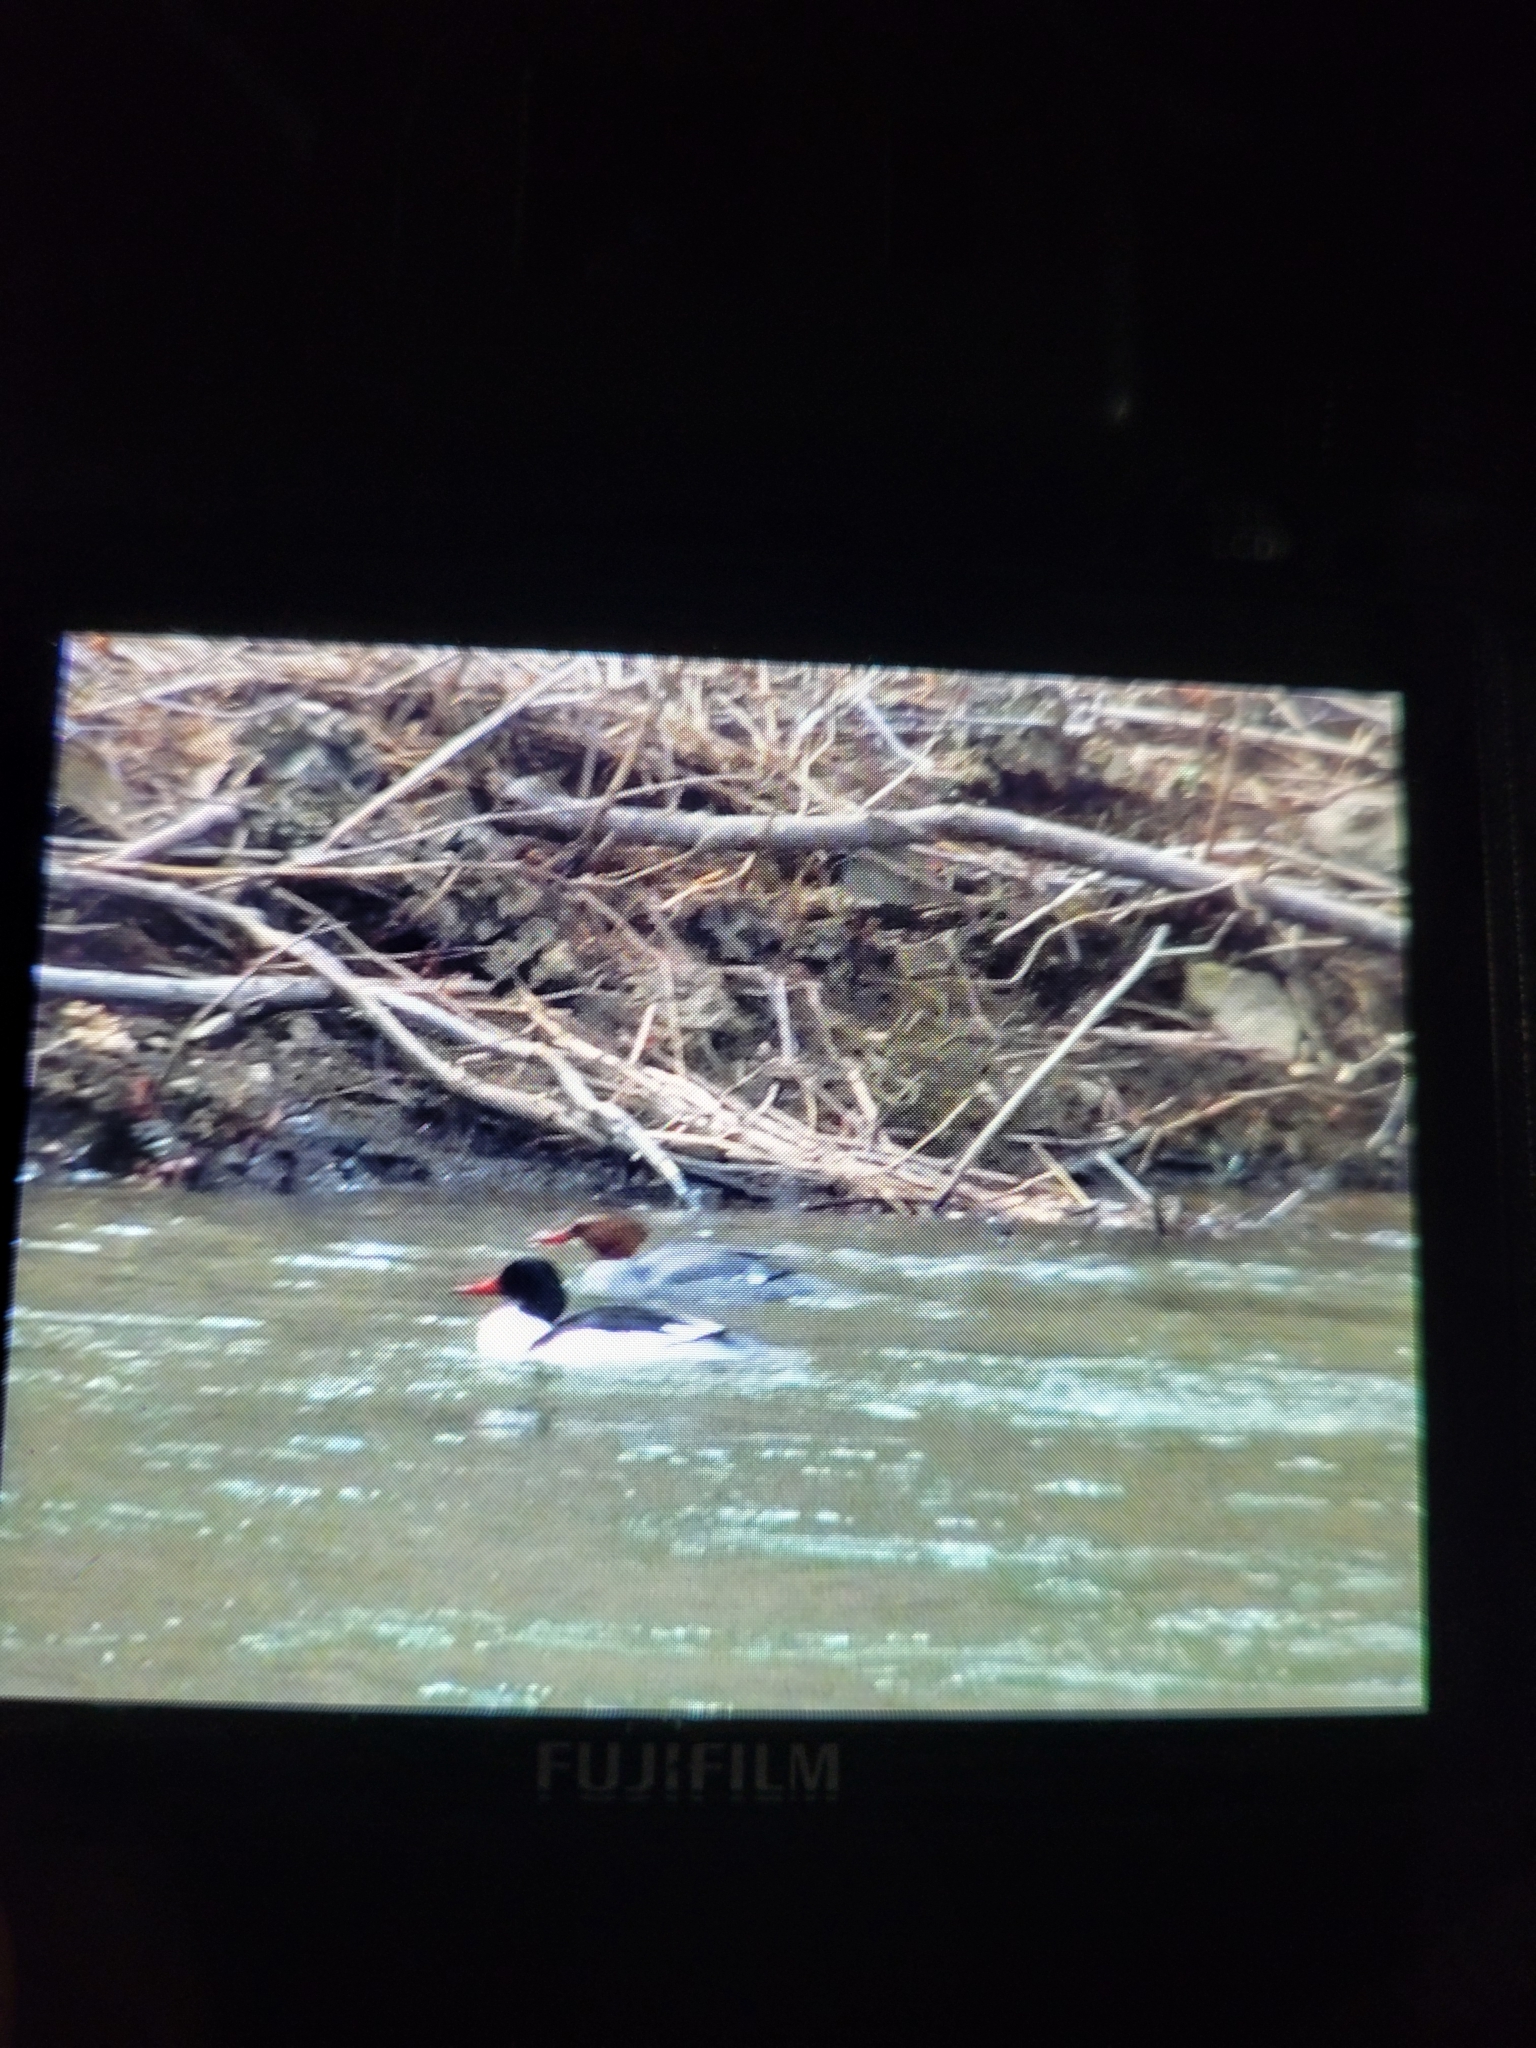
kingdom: Animalia
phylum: Chordata
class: Aves
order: Anseriformes
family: Anatidae
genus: Mergus
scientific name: Mergus merganser
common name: Common merganser
